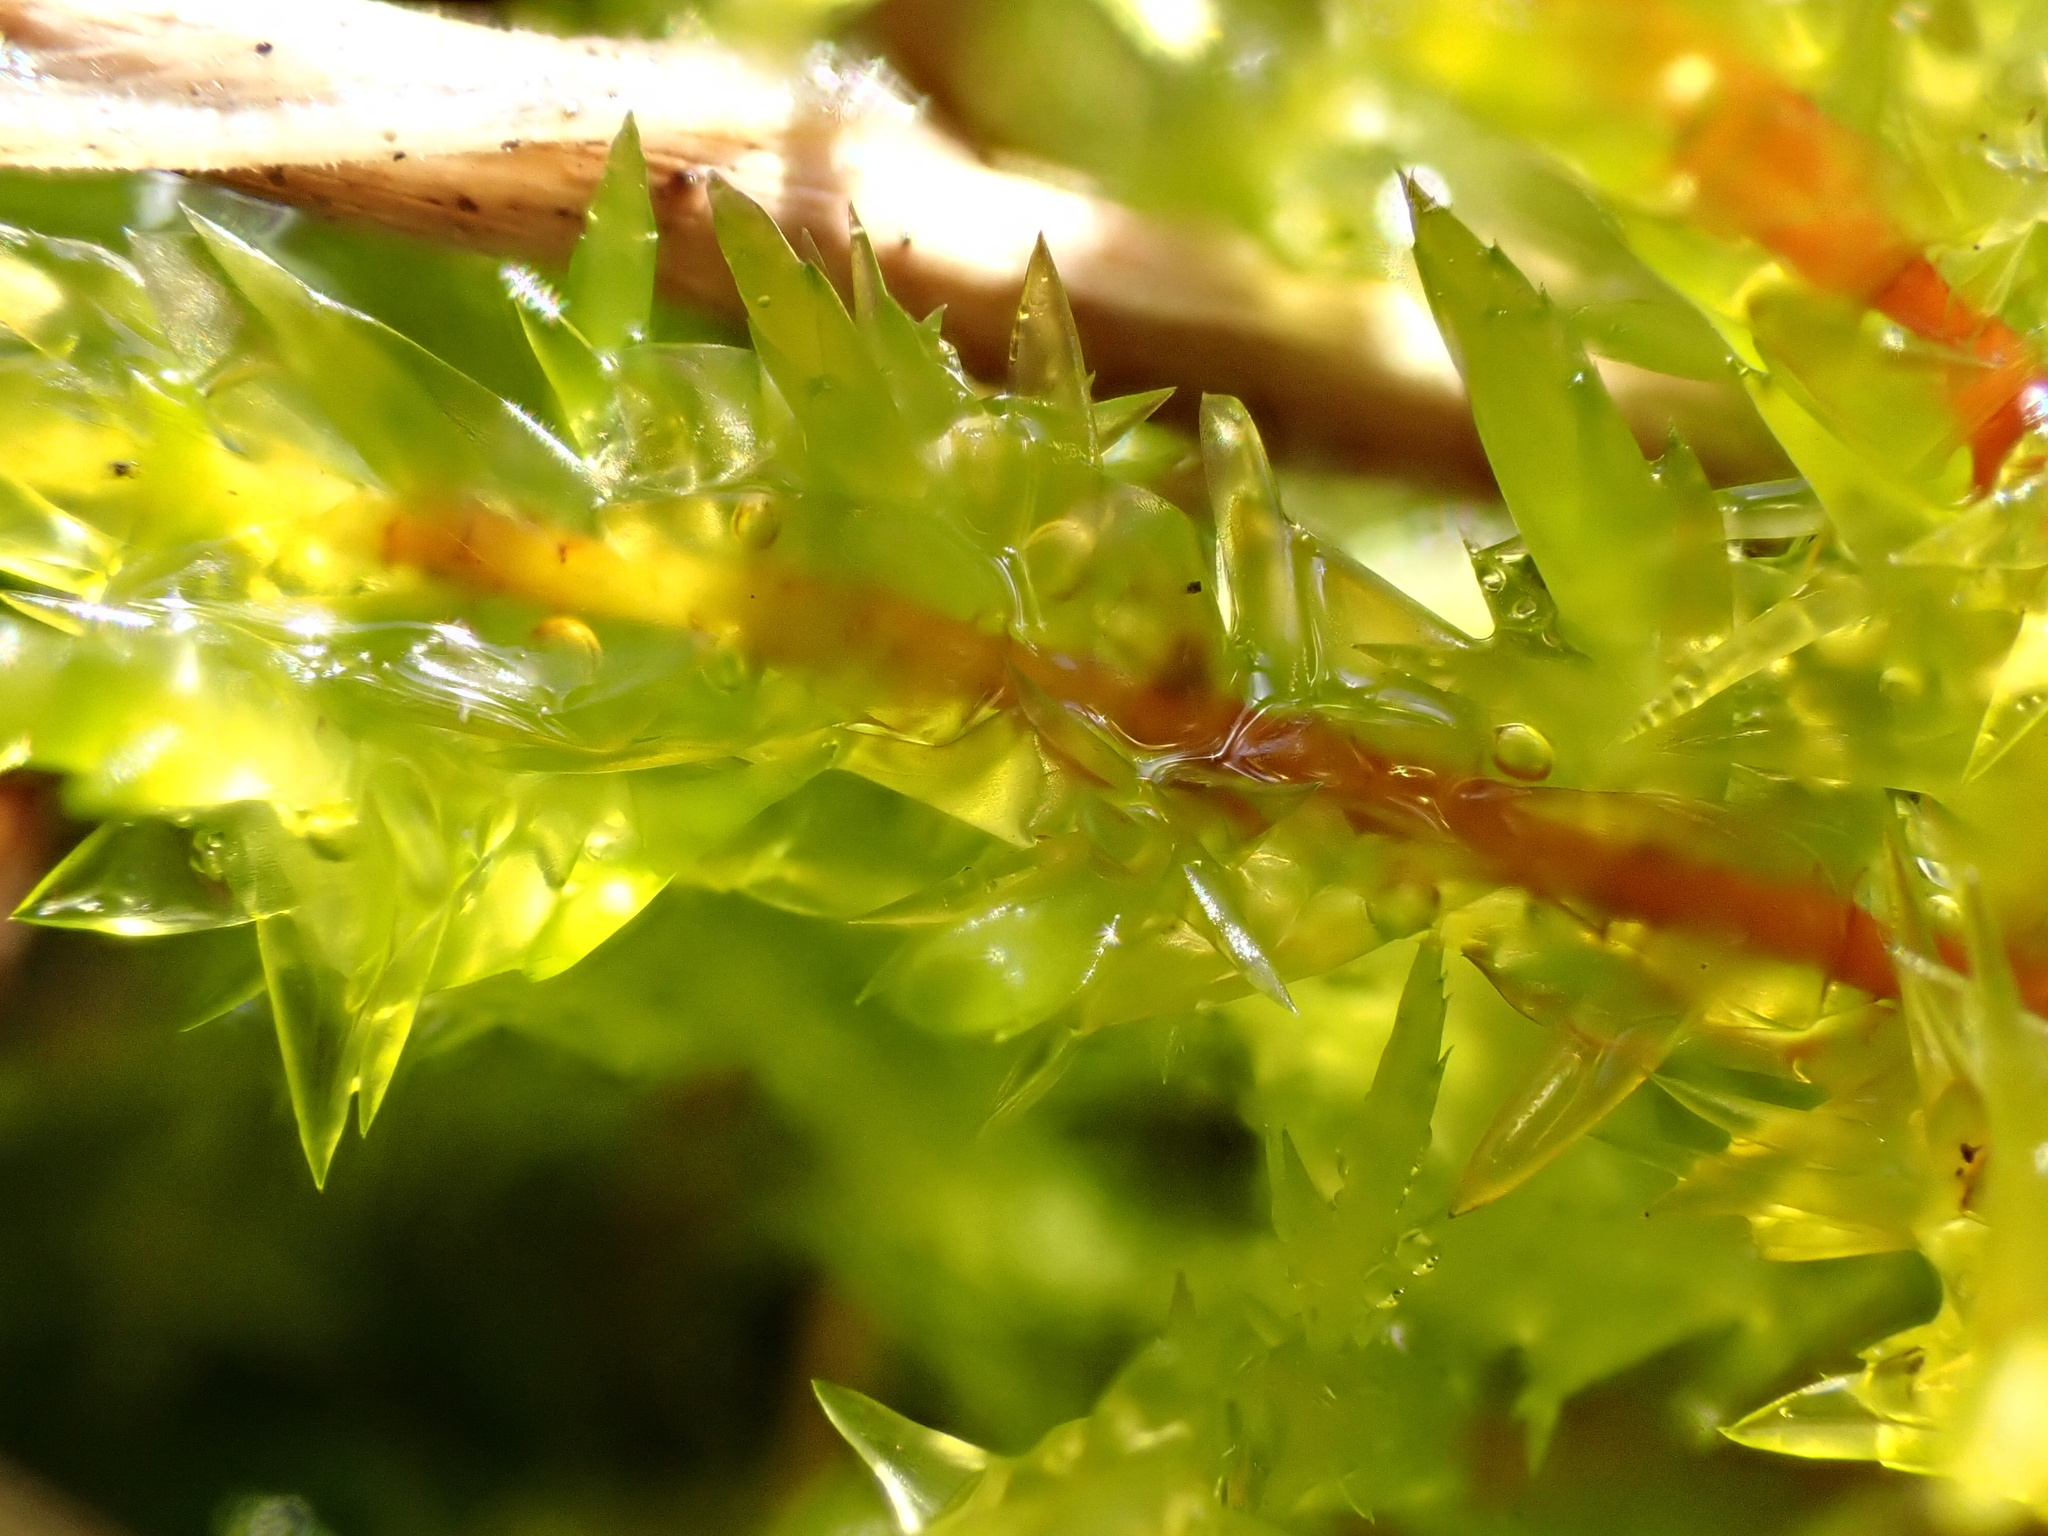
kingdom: Plantae
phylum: Bryophyta
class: Bryopsida
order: Hypnales
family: Pylaisiaceae
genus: Calliergonella
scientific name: Calliergonella cuspidata
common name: Common large wetland moss
